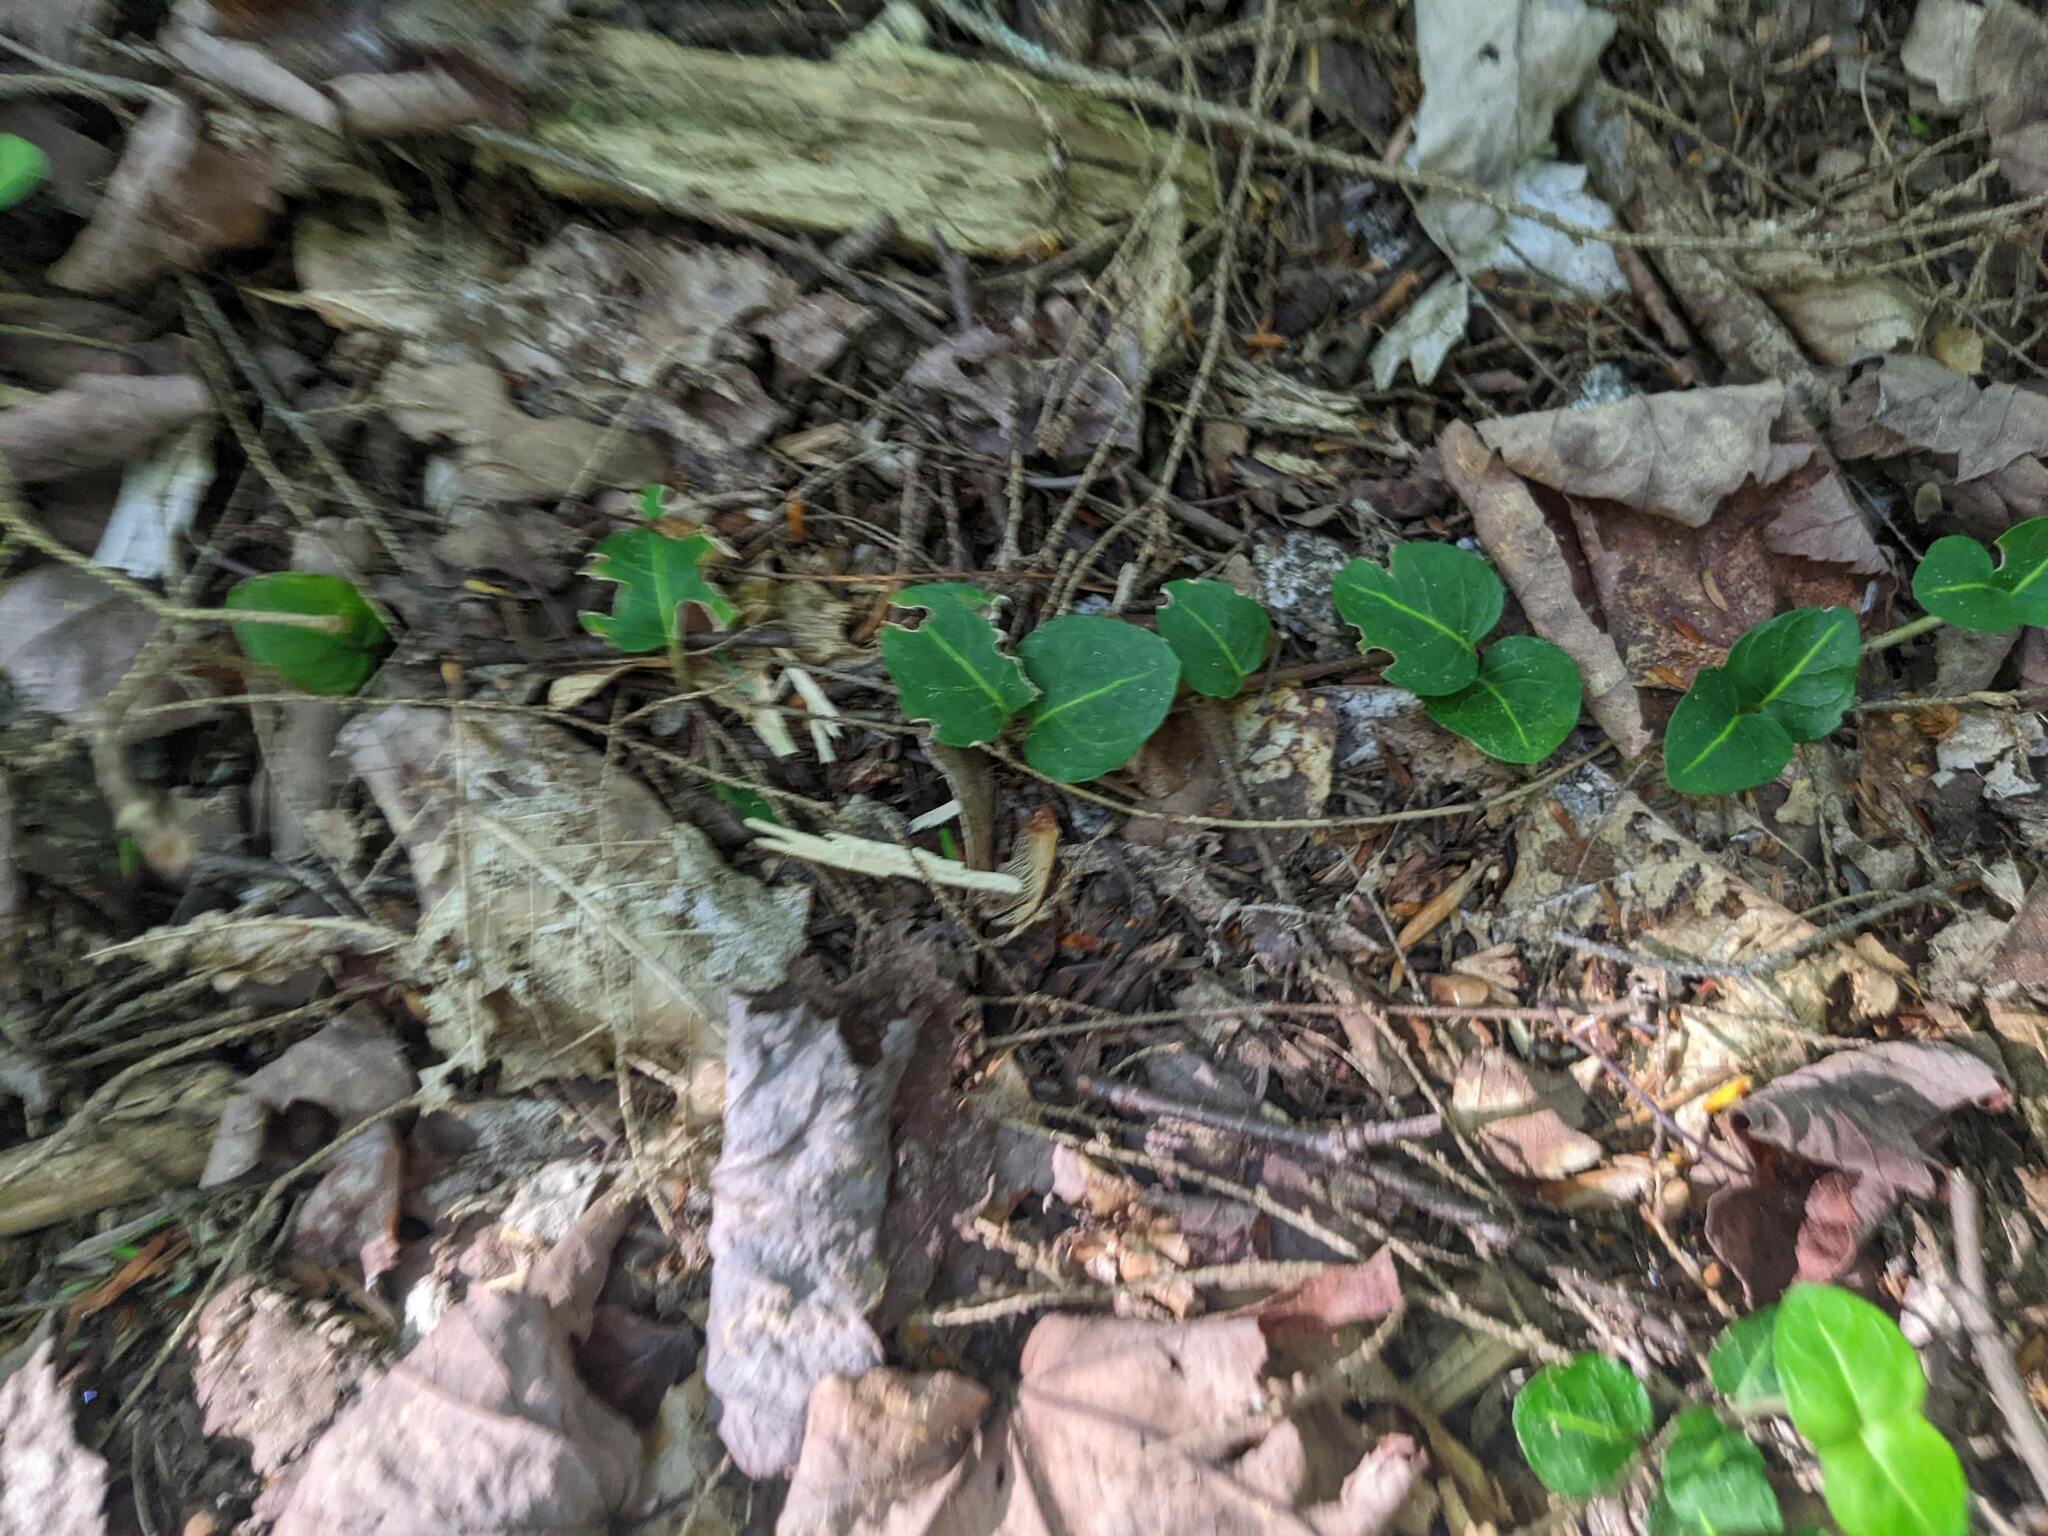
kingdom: Plantae
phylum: Tracheophyta
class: Magnoliopsida
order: Gentianales
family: Rubiaceae
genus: Mitchella
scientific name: Mitchella repens
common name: Partridge-berry
